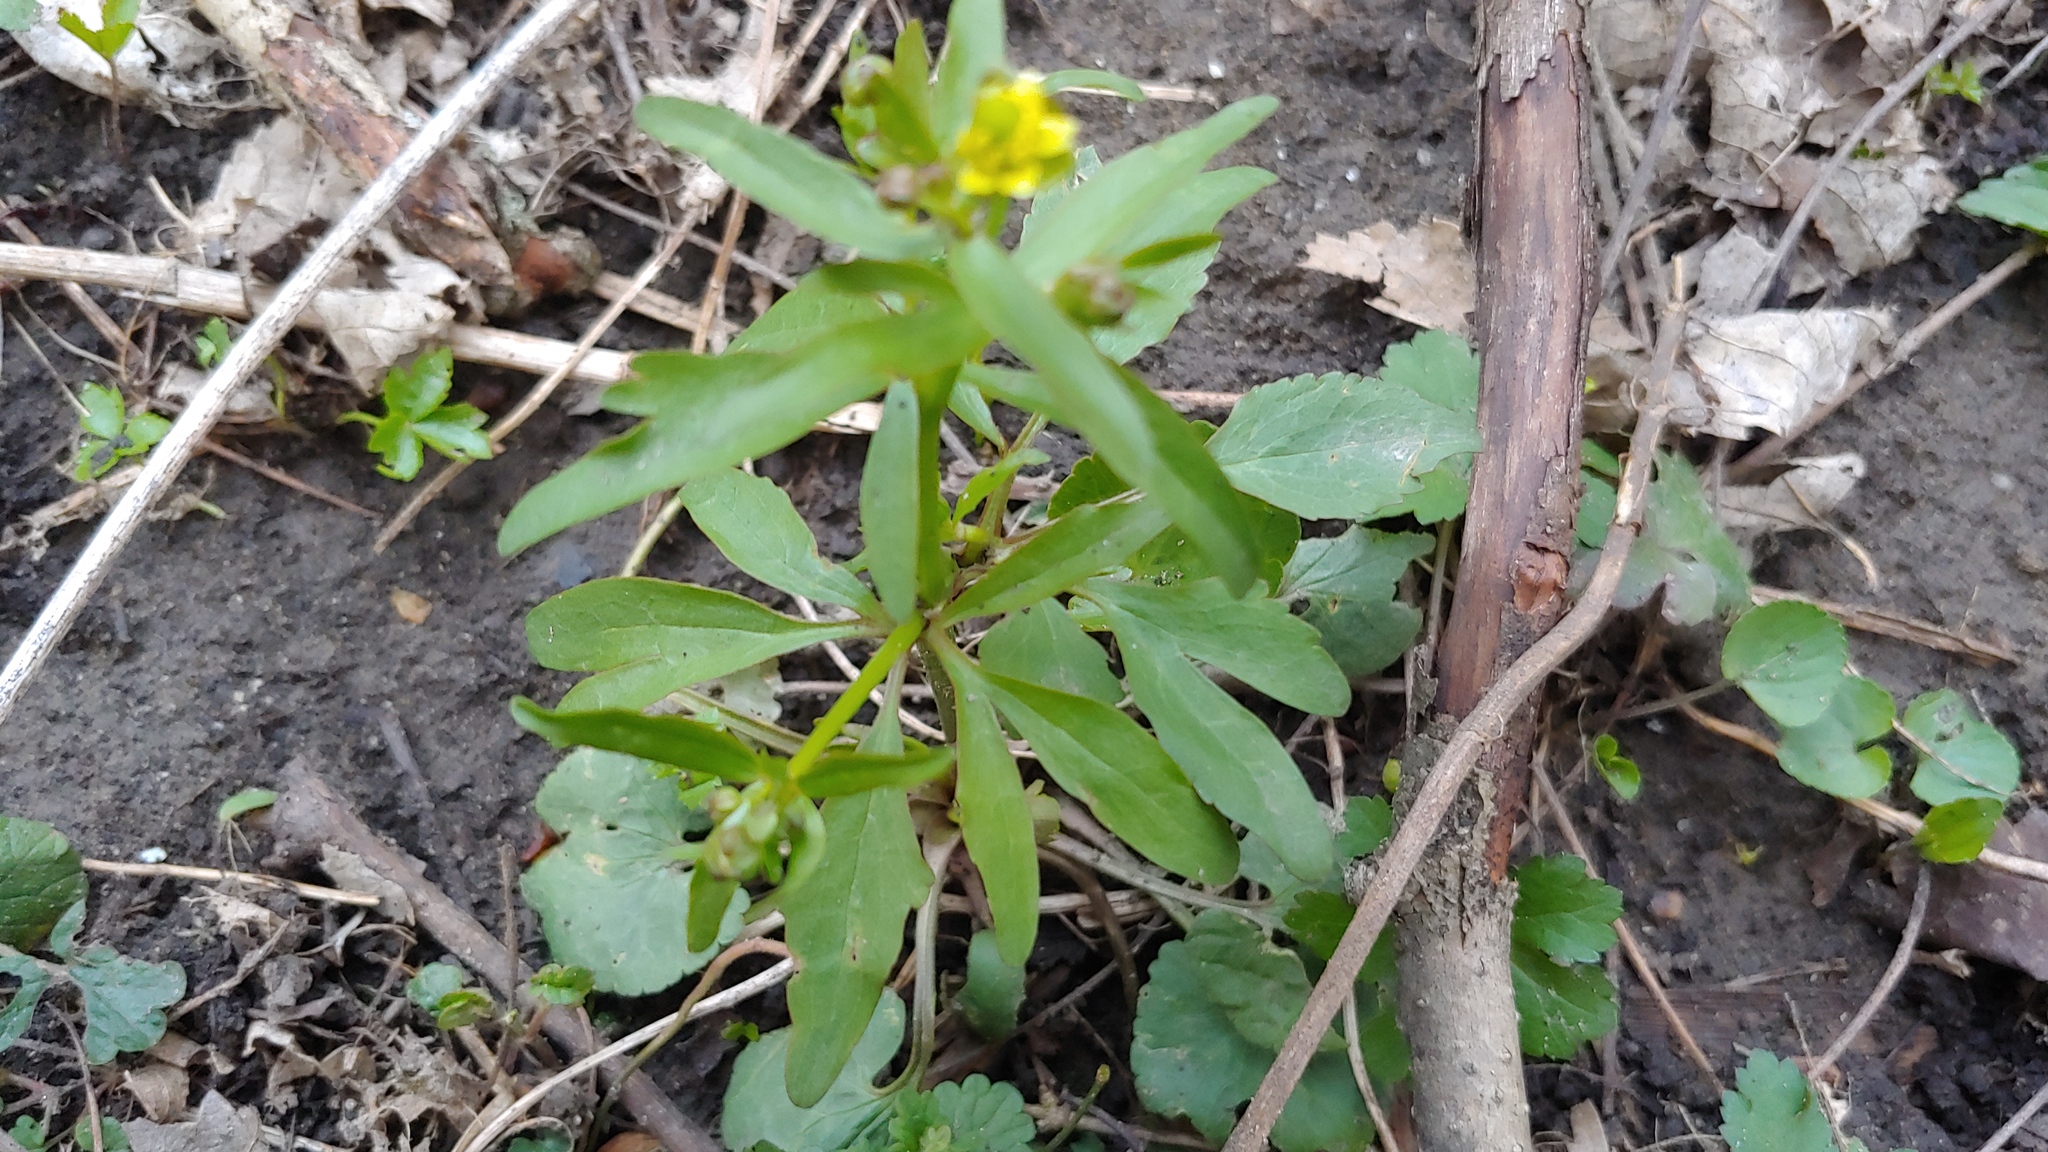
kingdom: Plantae
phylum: Tracheophyta
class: Magnoliopsida
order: Ranunculales
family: Ranunculaceae
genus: Ranunculus
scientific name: Ranunculus abortivus
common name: Early wood buttercup
